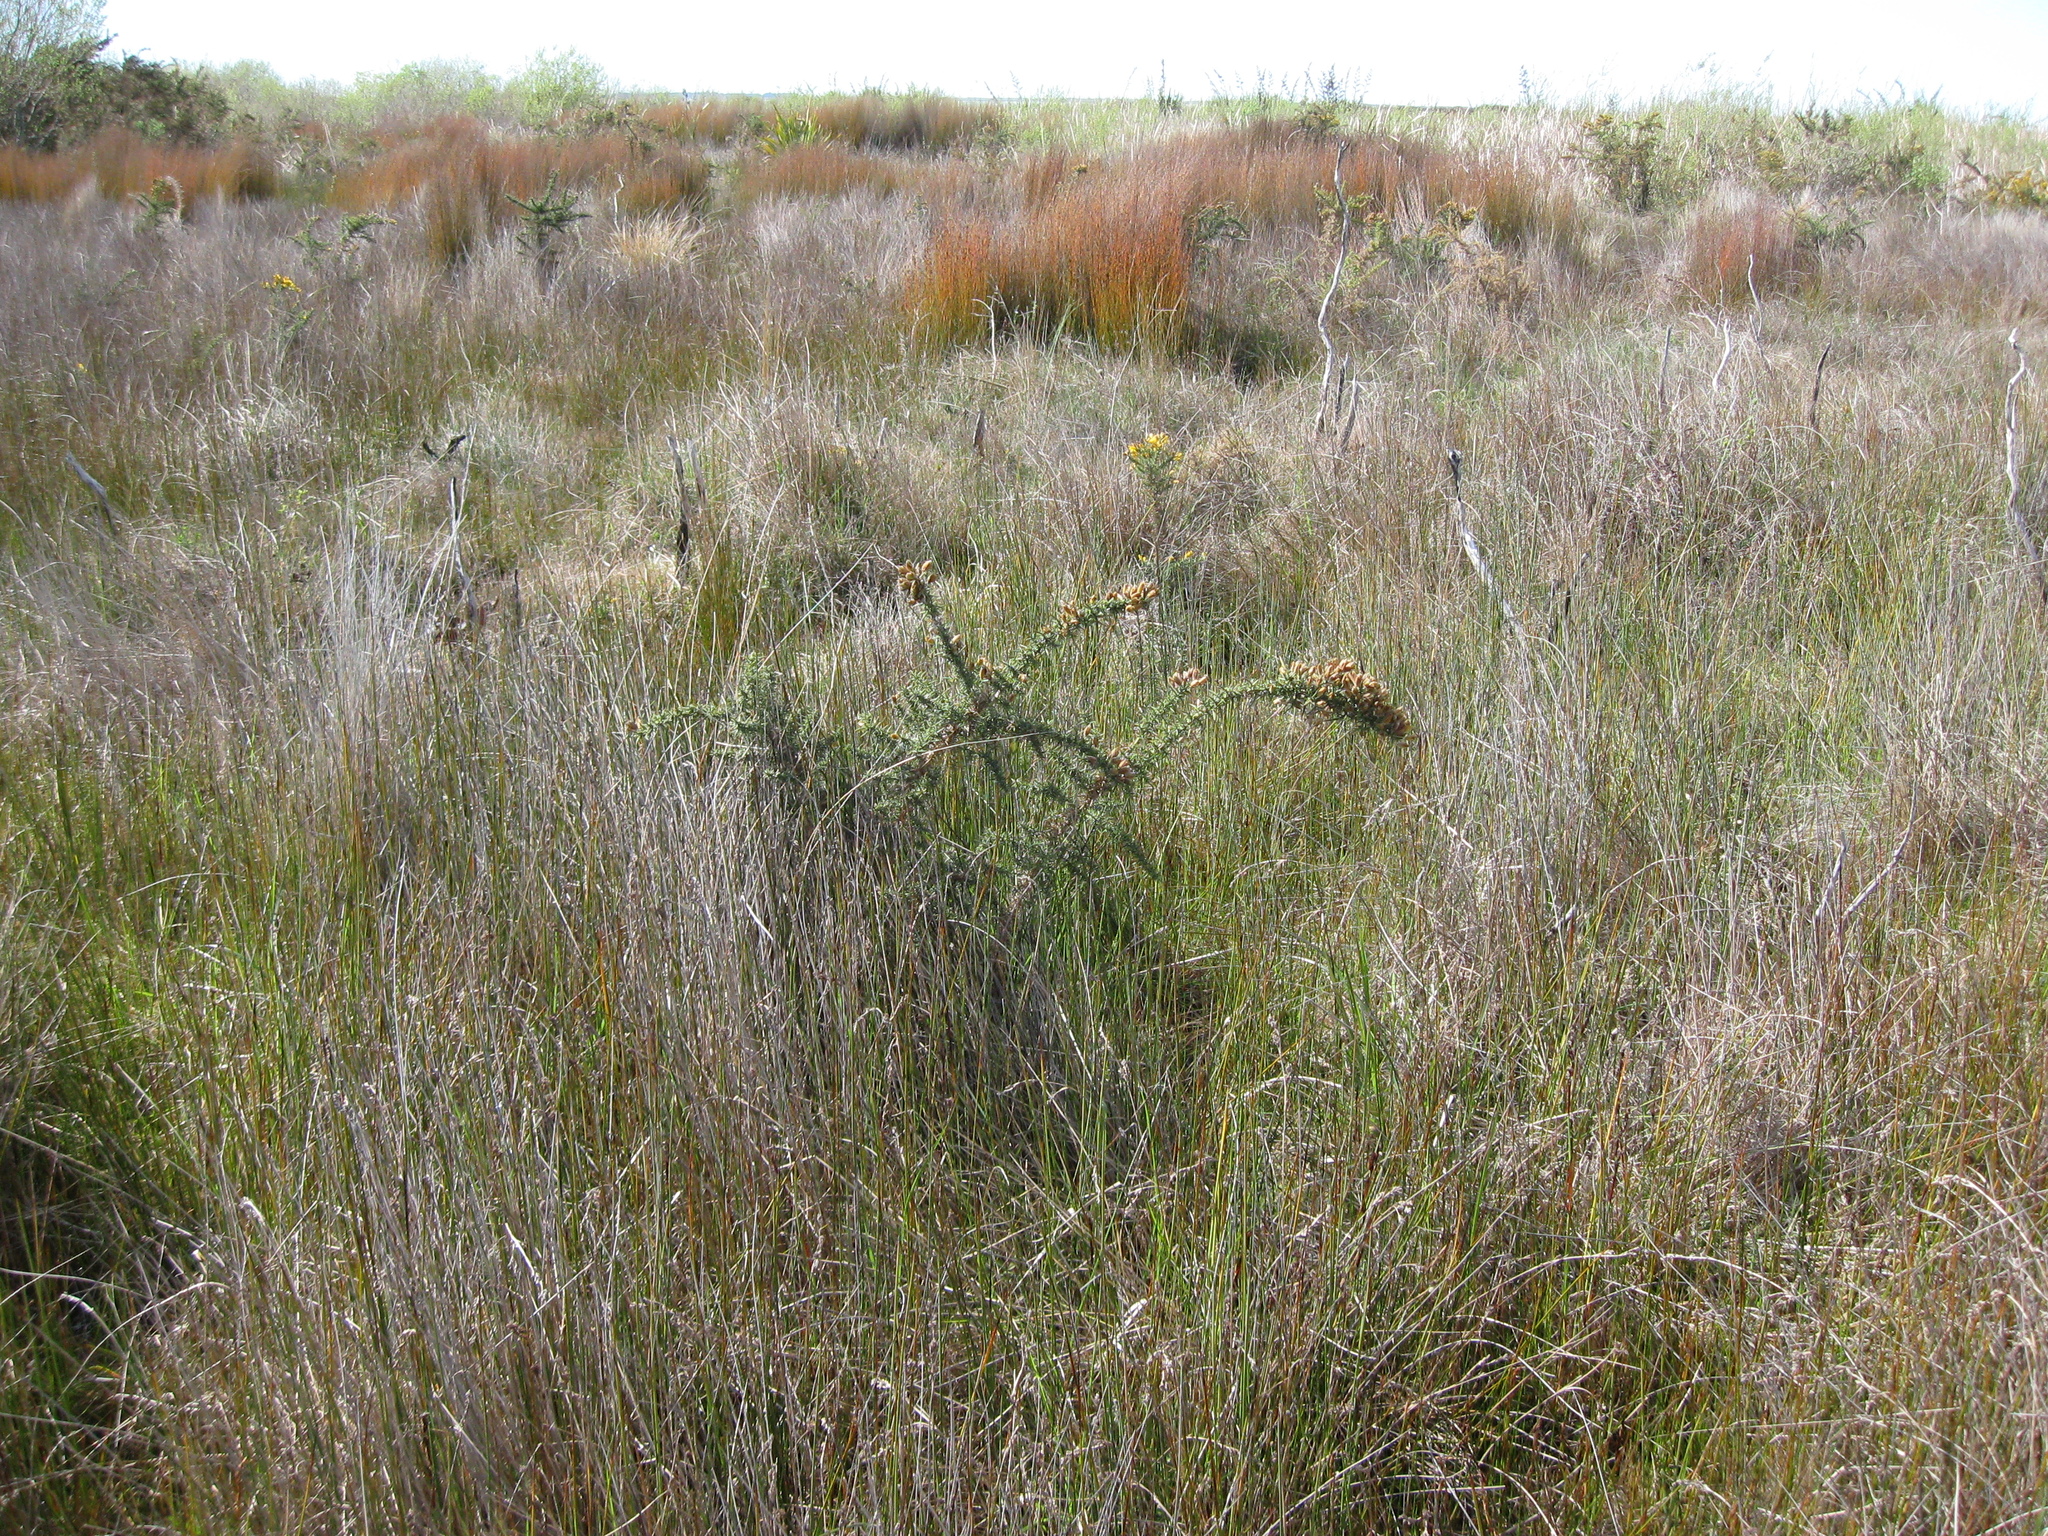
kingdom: Plantae
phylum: Tracheophyta
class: Magnoliopsida
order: Fabales
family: Fabaceae
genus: Ulex
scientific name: Ulex europaeus
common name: Common gorse
